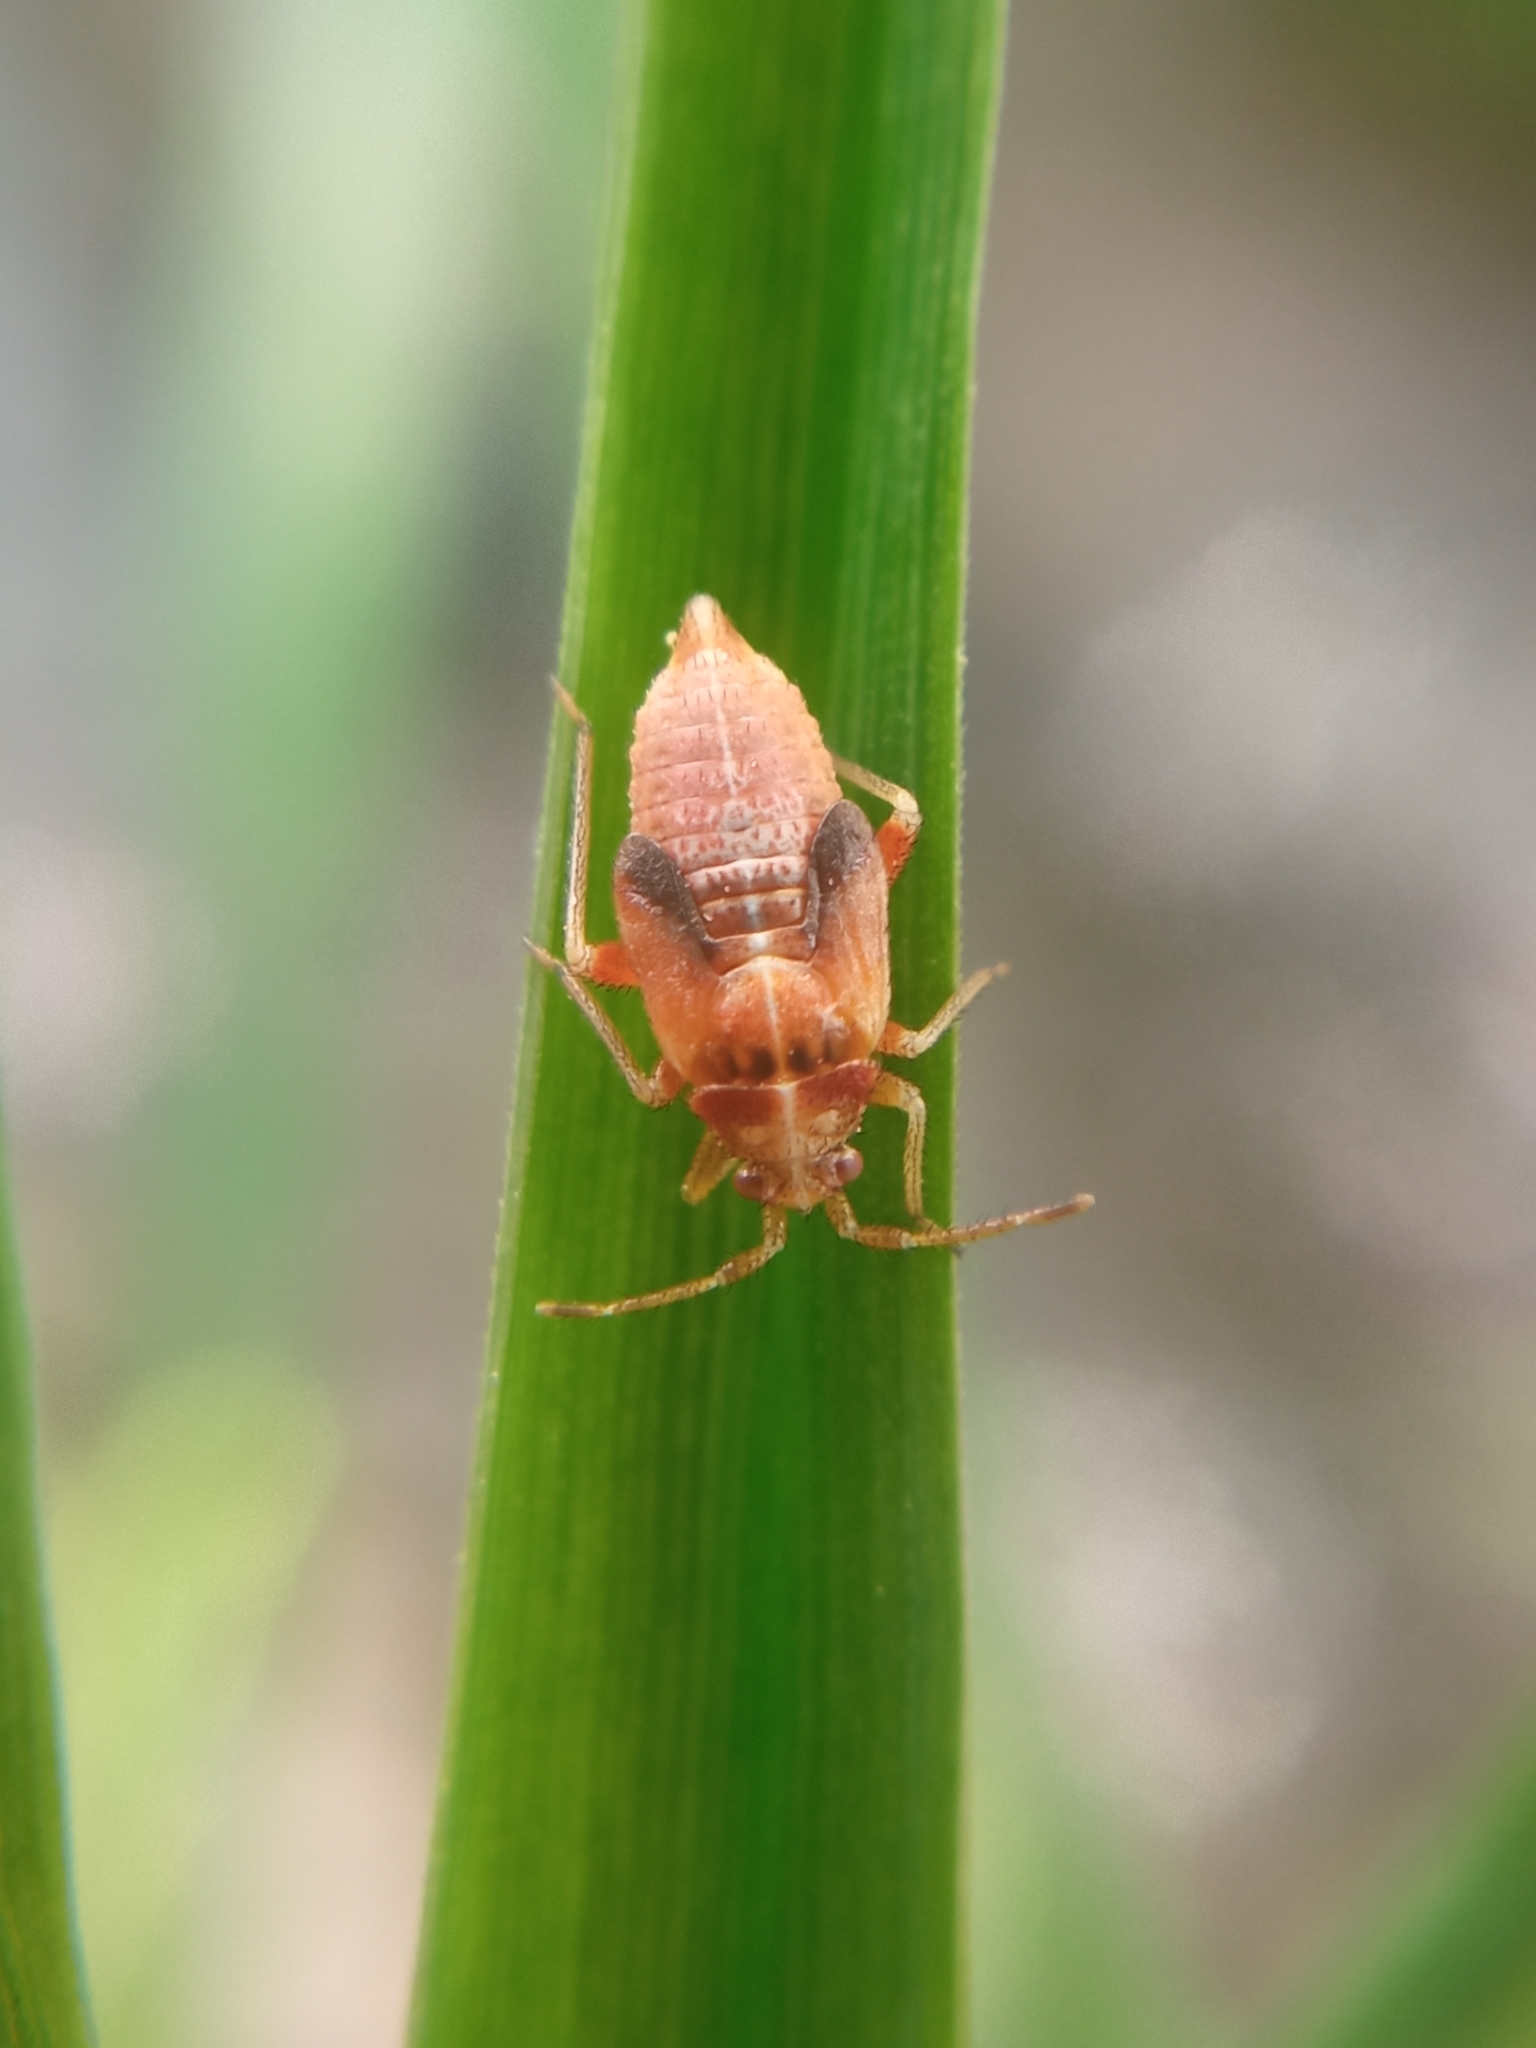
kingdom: Animalia
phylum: Arthropoda
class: Insecta
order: Hemiptera
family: Miridae
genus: Harpocera
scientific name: Harpocera thoracica
